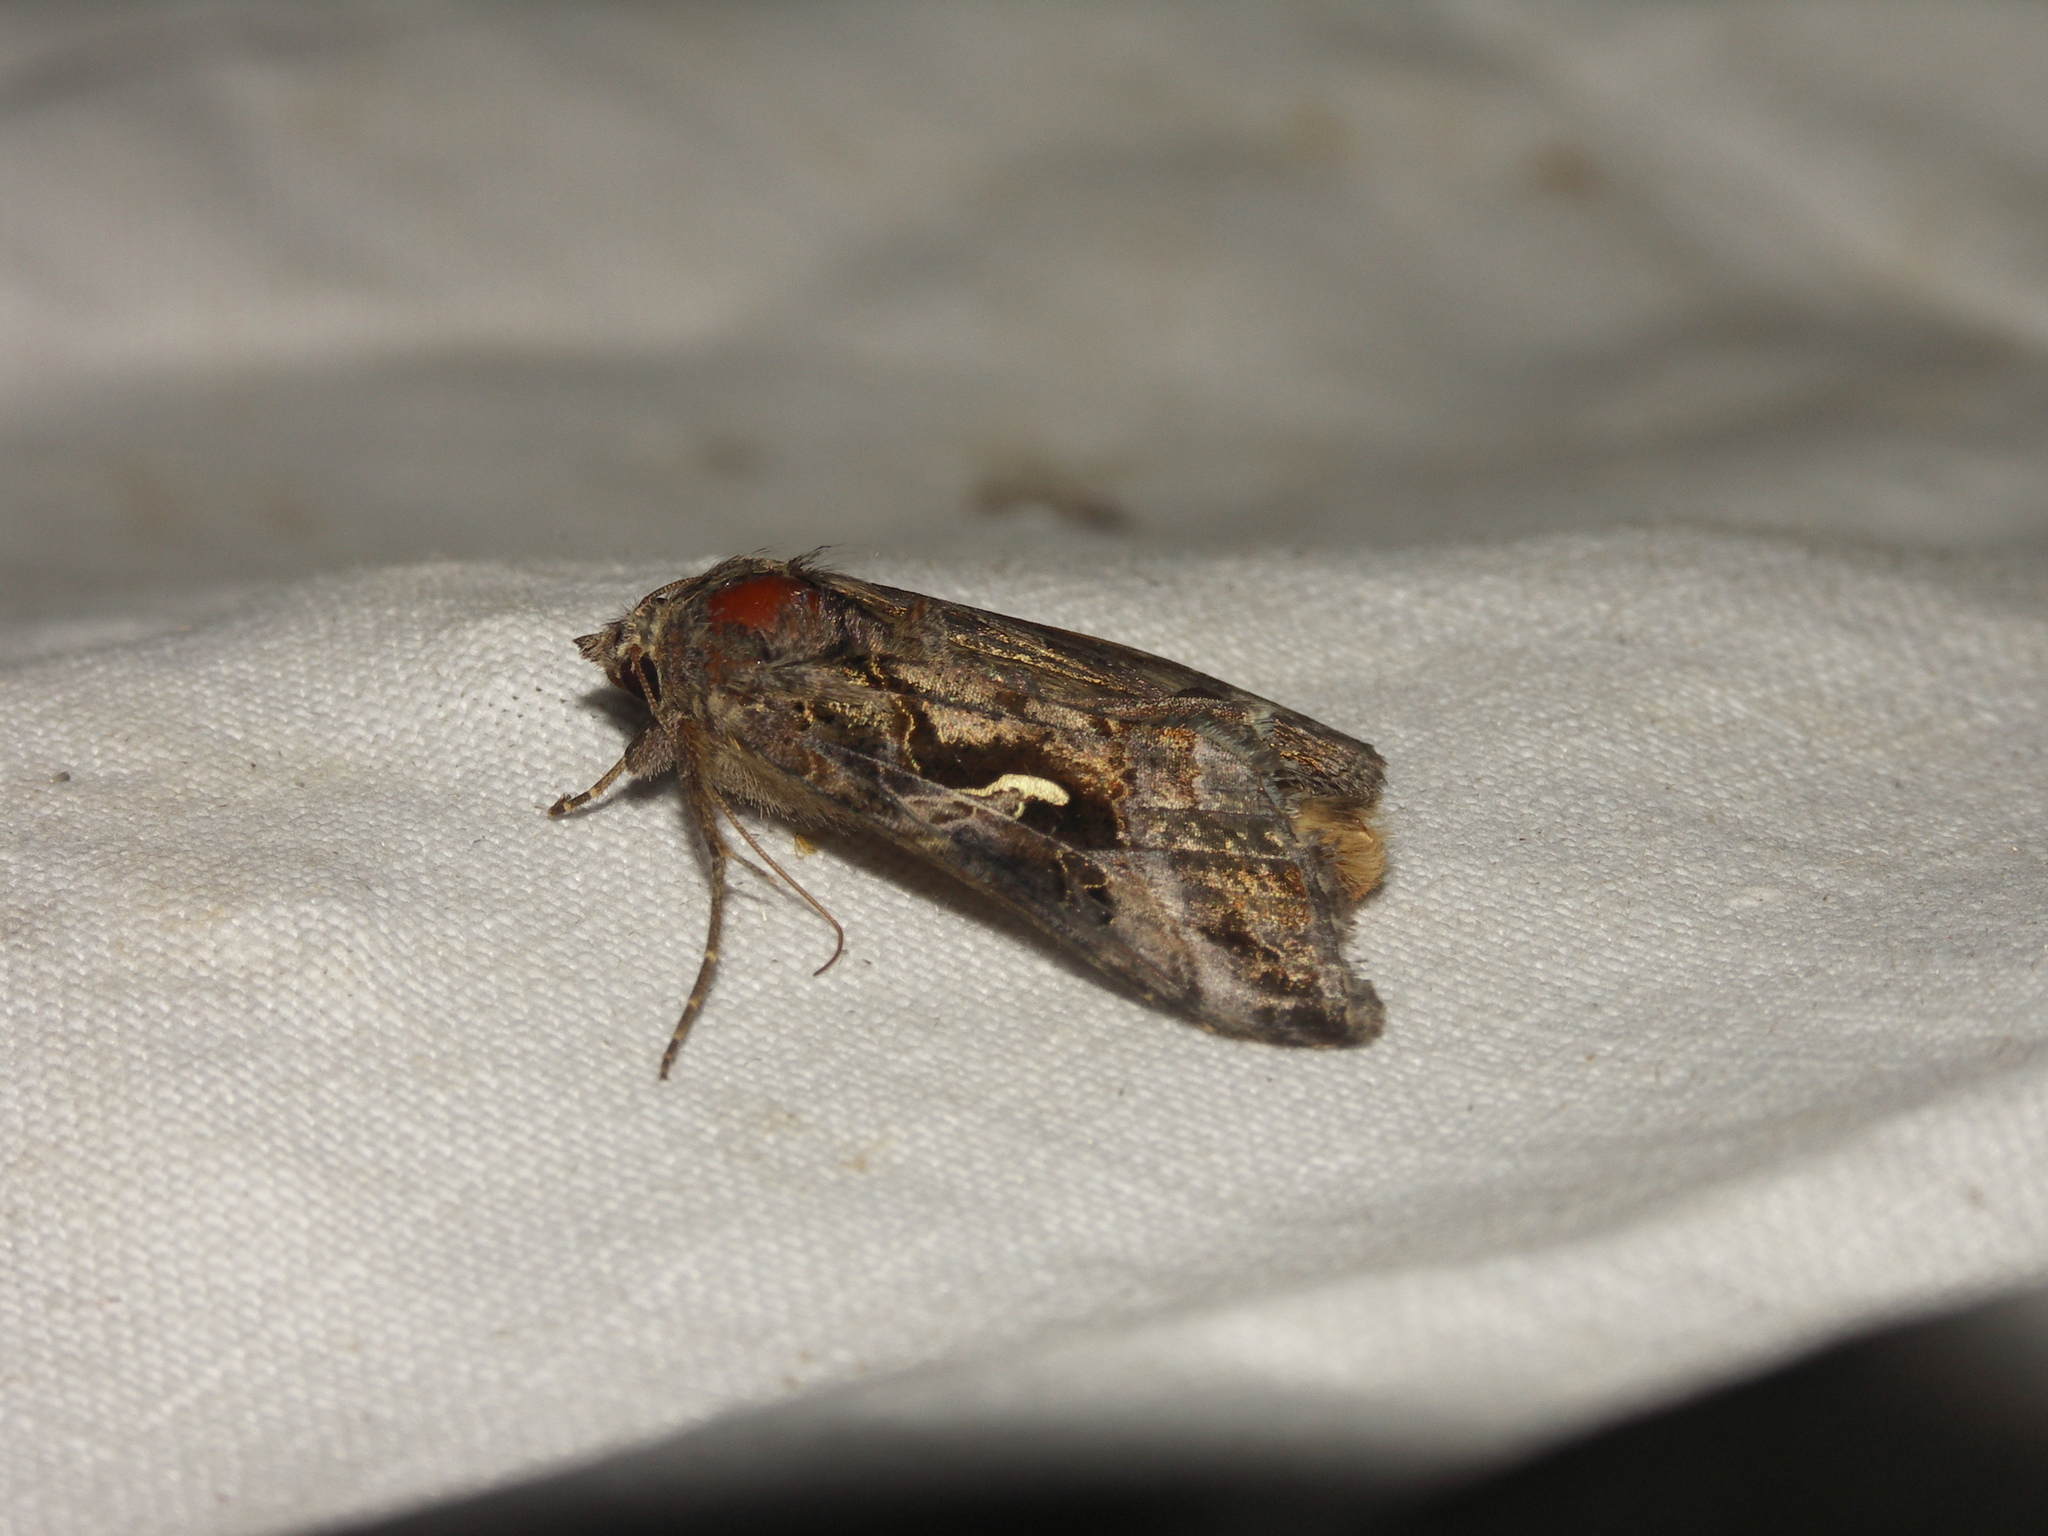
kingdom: Animalia
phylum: Arthropoda
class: Insecta
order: Lepidoptera
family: Noctuidae
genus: Autographa
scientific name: Autographa gamma
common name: Silver y
